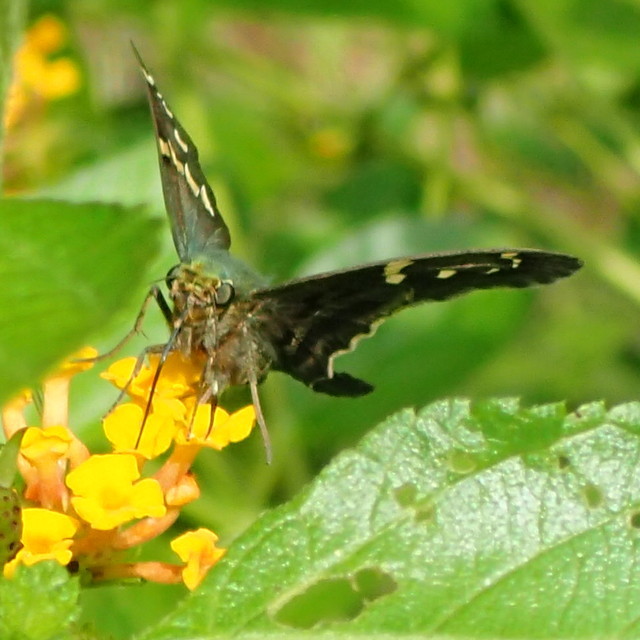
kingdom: Animalia
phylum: Arthropoda
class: Insecta
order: Lepidoptera
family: Hesperiidae
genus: Urbanus
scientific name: Urbanus proteus
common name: Long-tailed skipper
